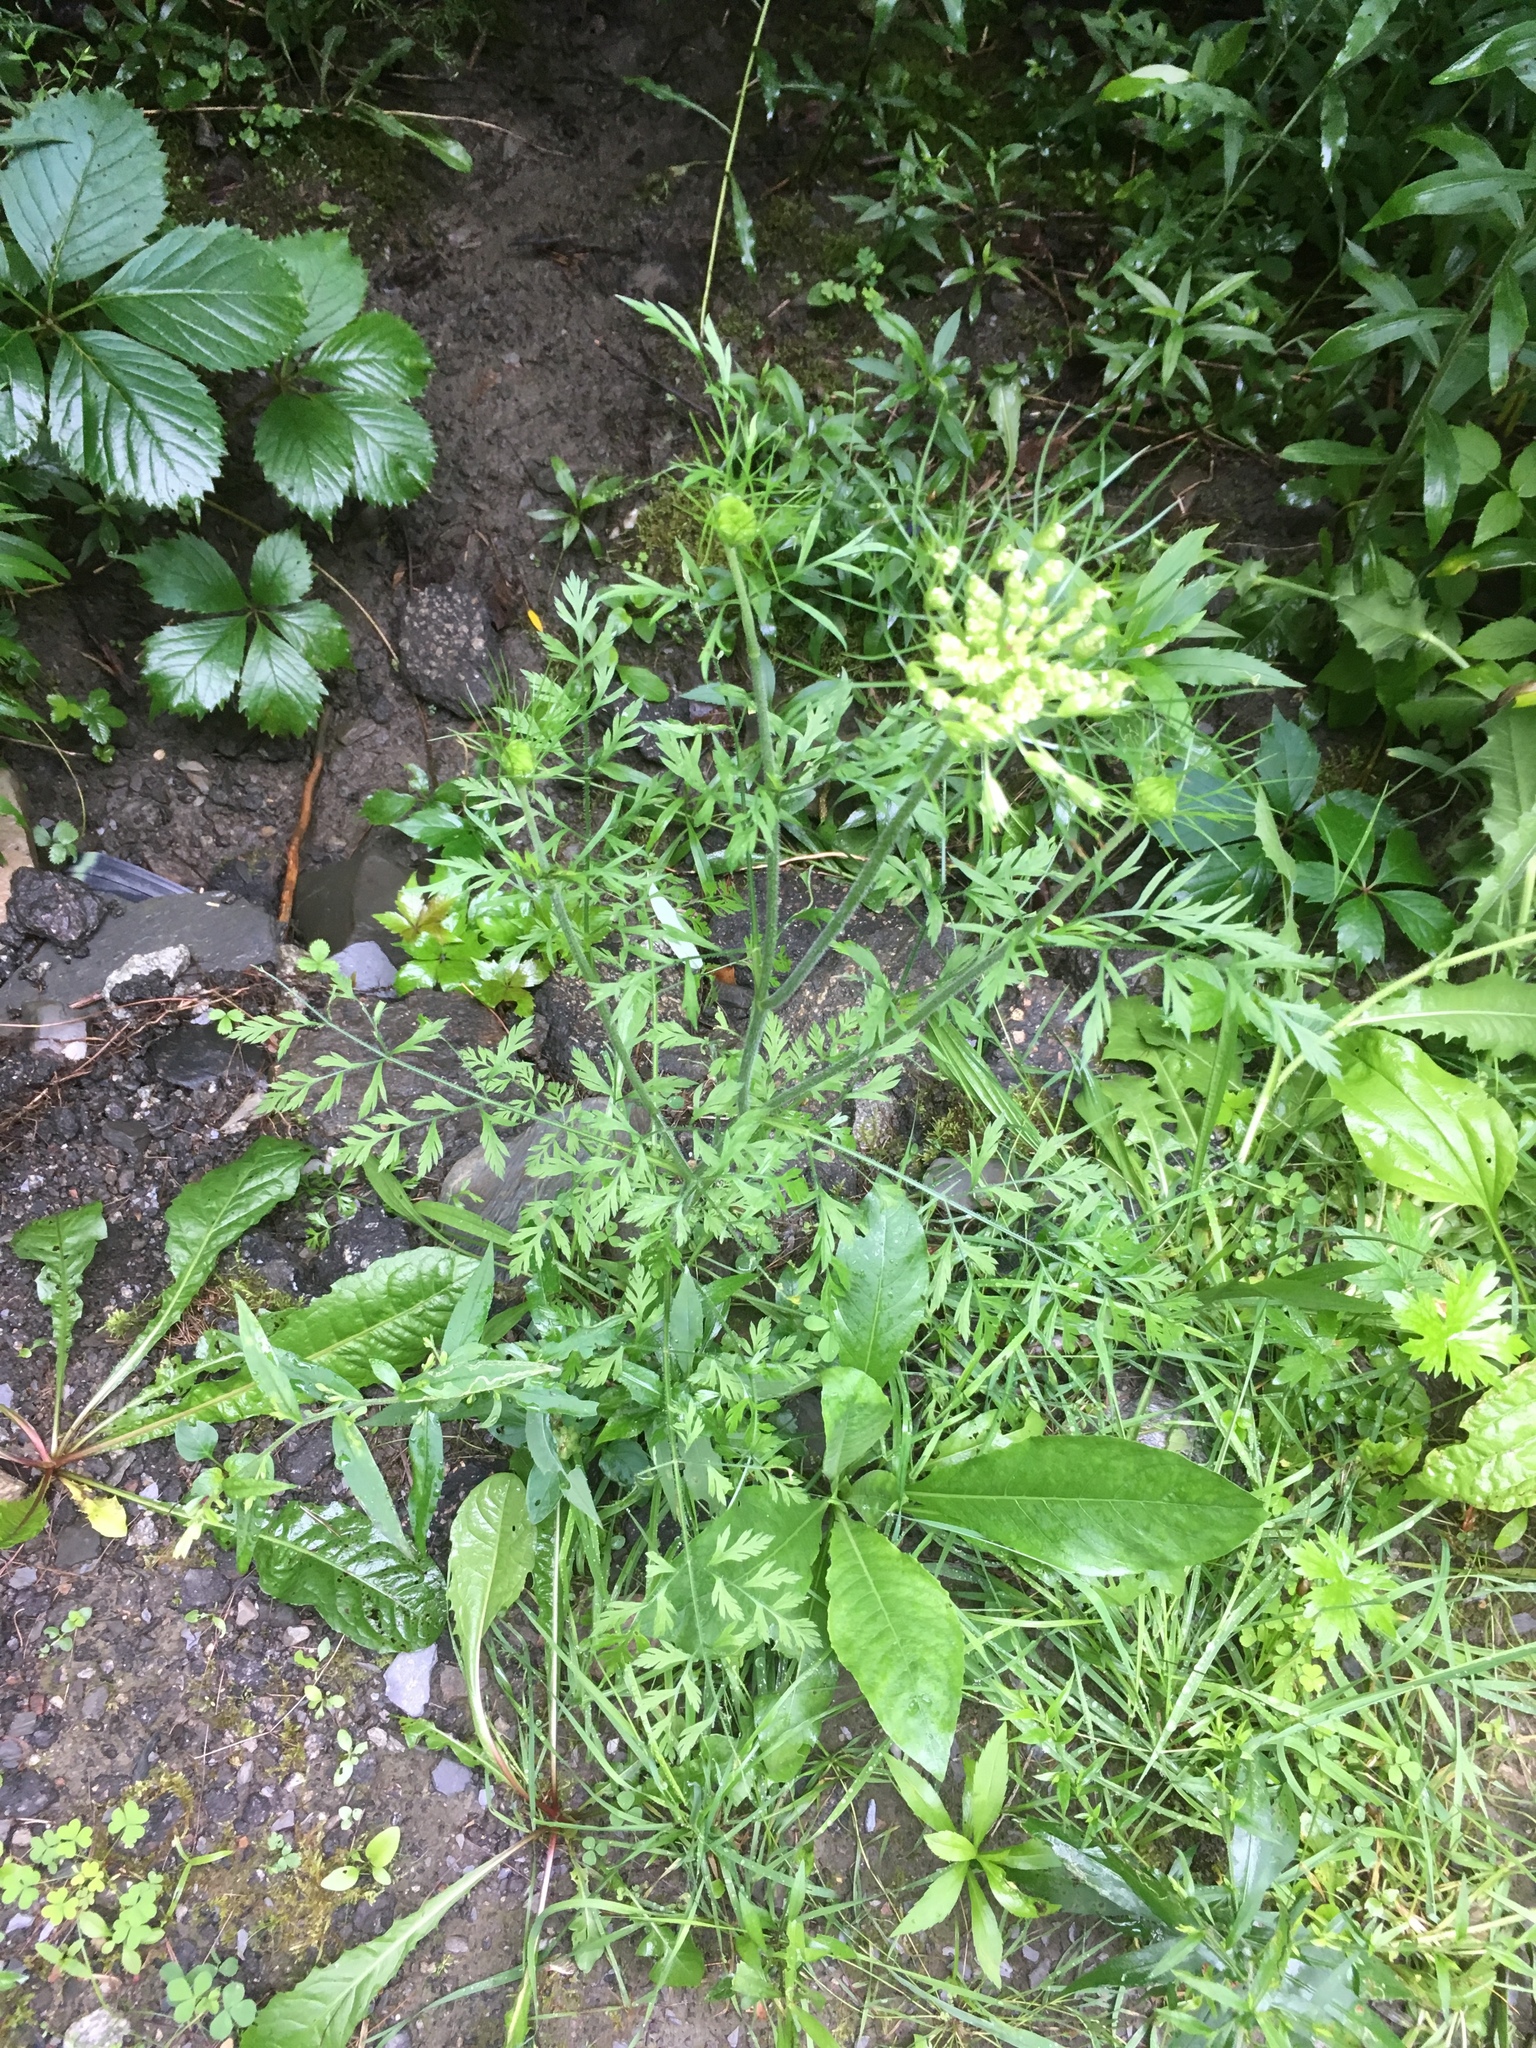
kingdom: Plantae
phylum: Tracheophyta
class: Magnoliopsida
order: Apiales
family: Apiaceae
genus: Daucus
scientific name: Daucus carota
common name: Wild carrot
